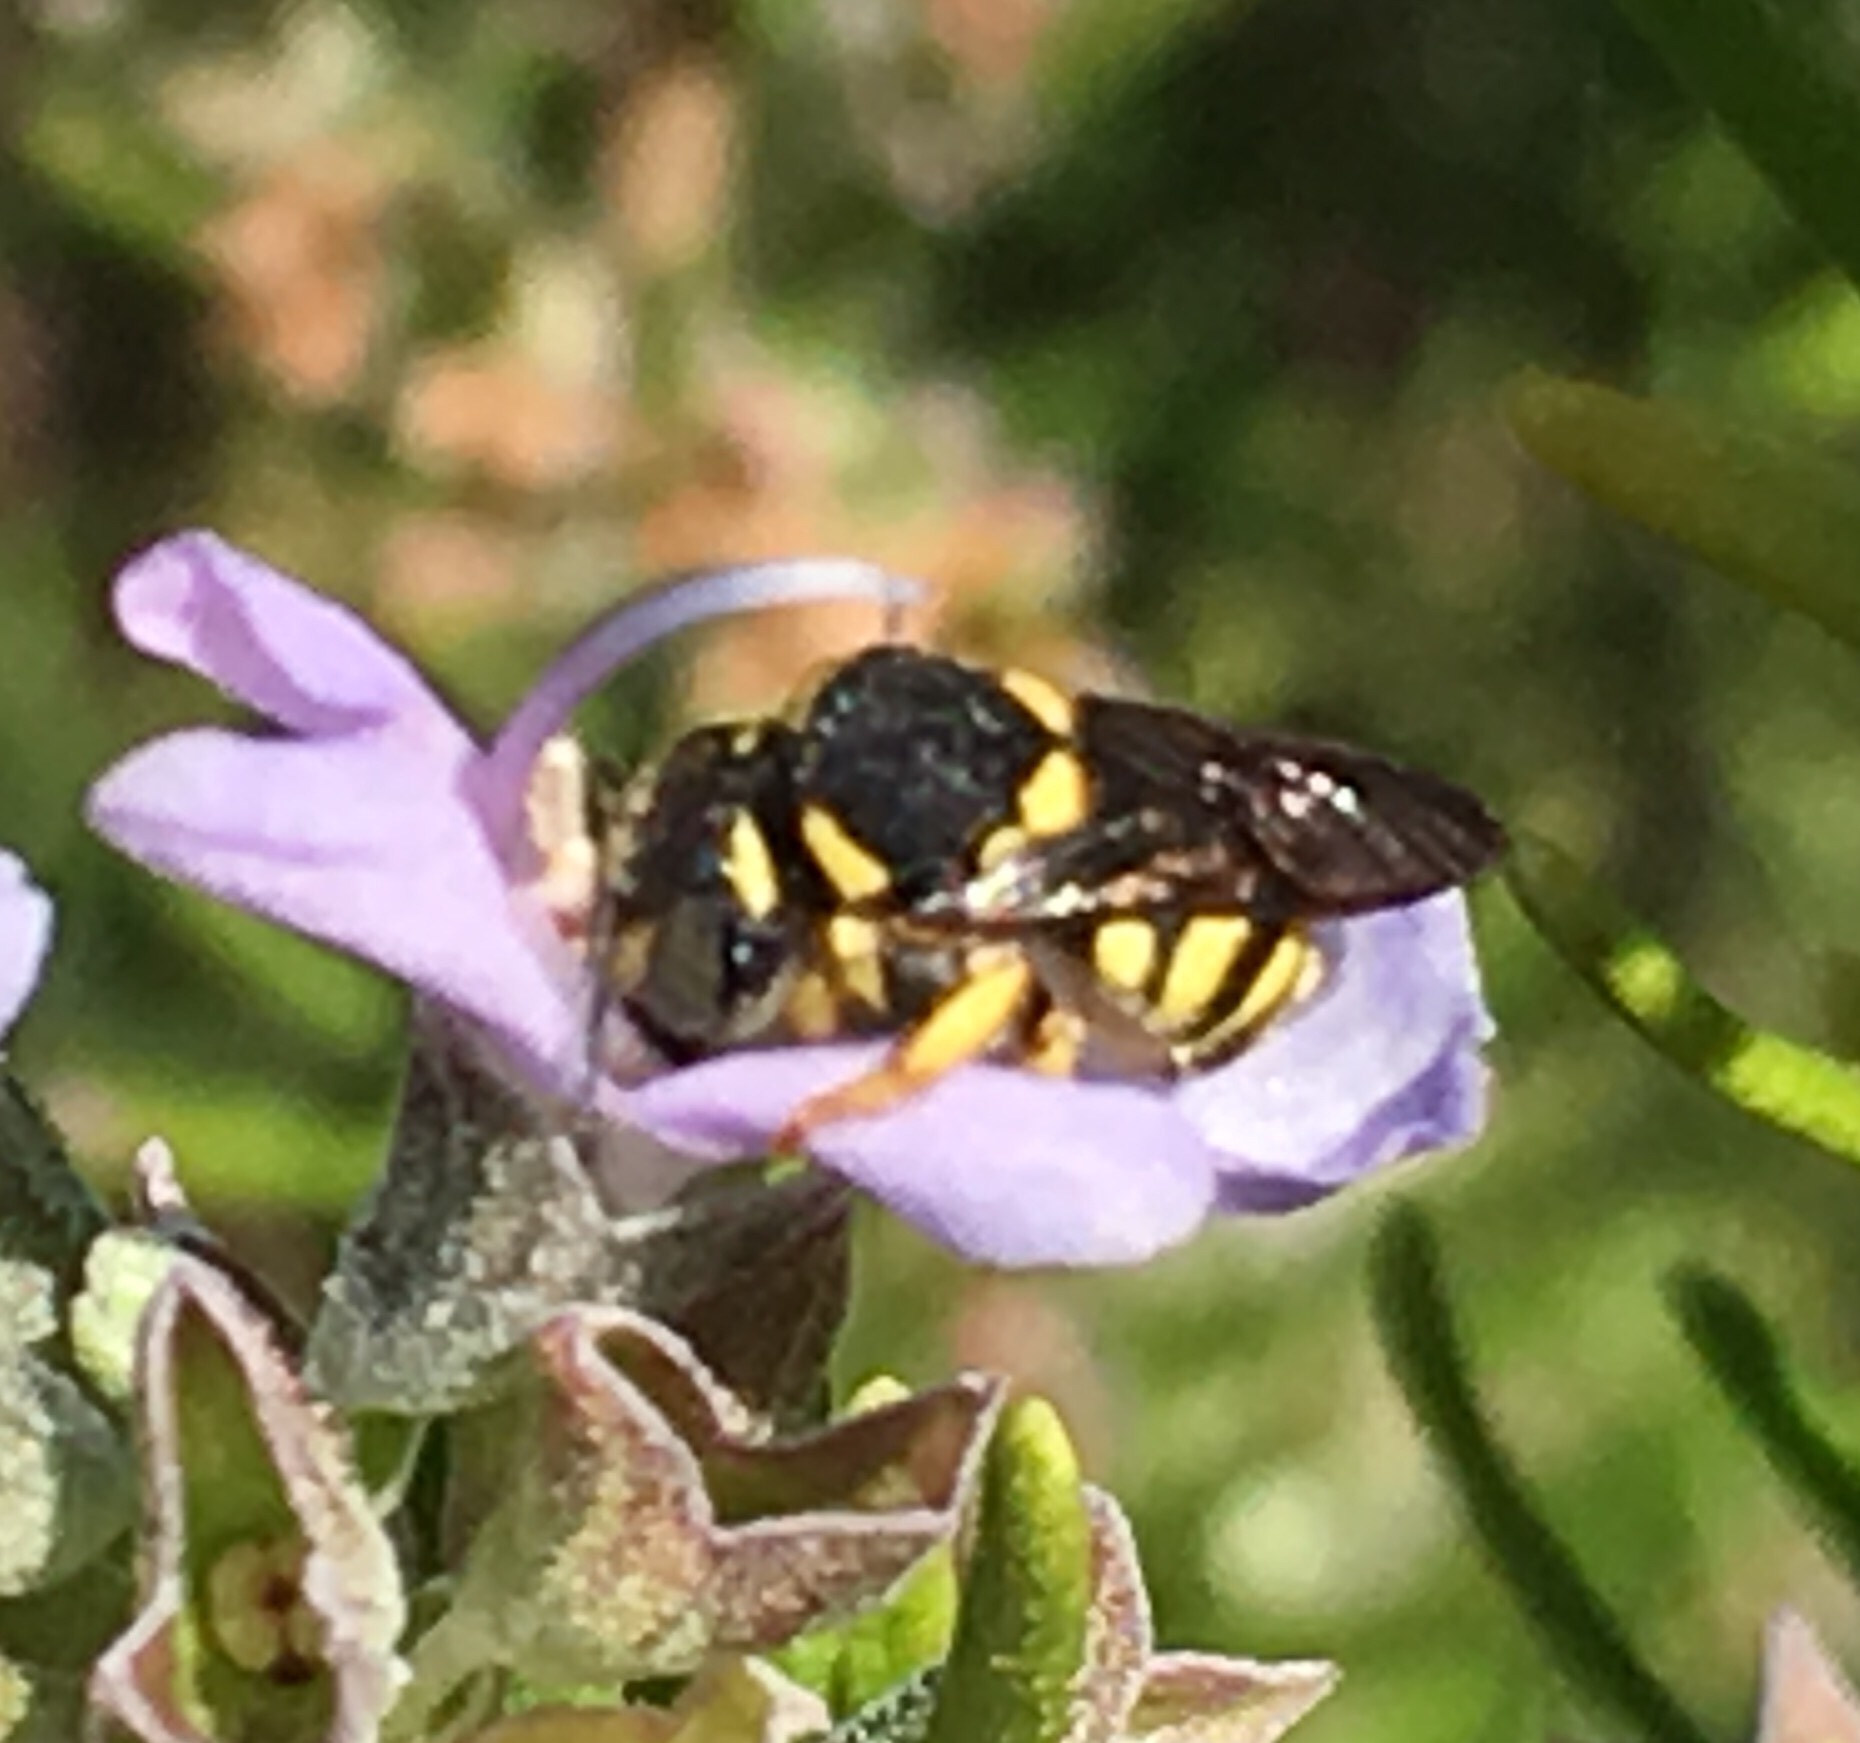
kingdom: Animalia
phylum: Arthropoda
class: Insecta
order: Hymenoptera
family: Megachilidae
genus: Anthidiellum
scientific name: Anthidiellum strigatum
